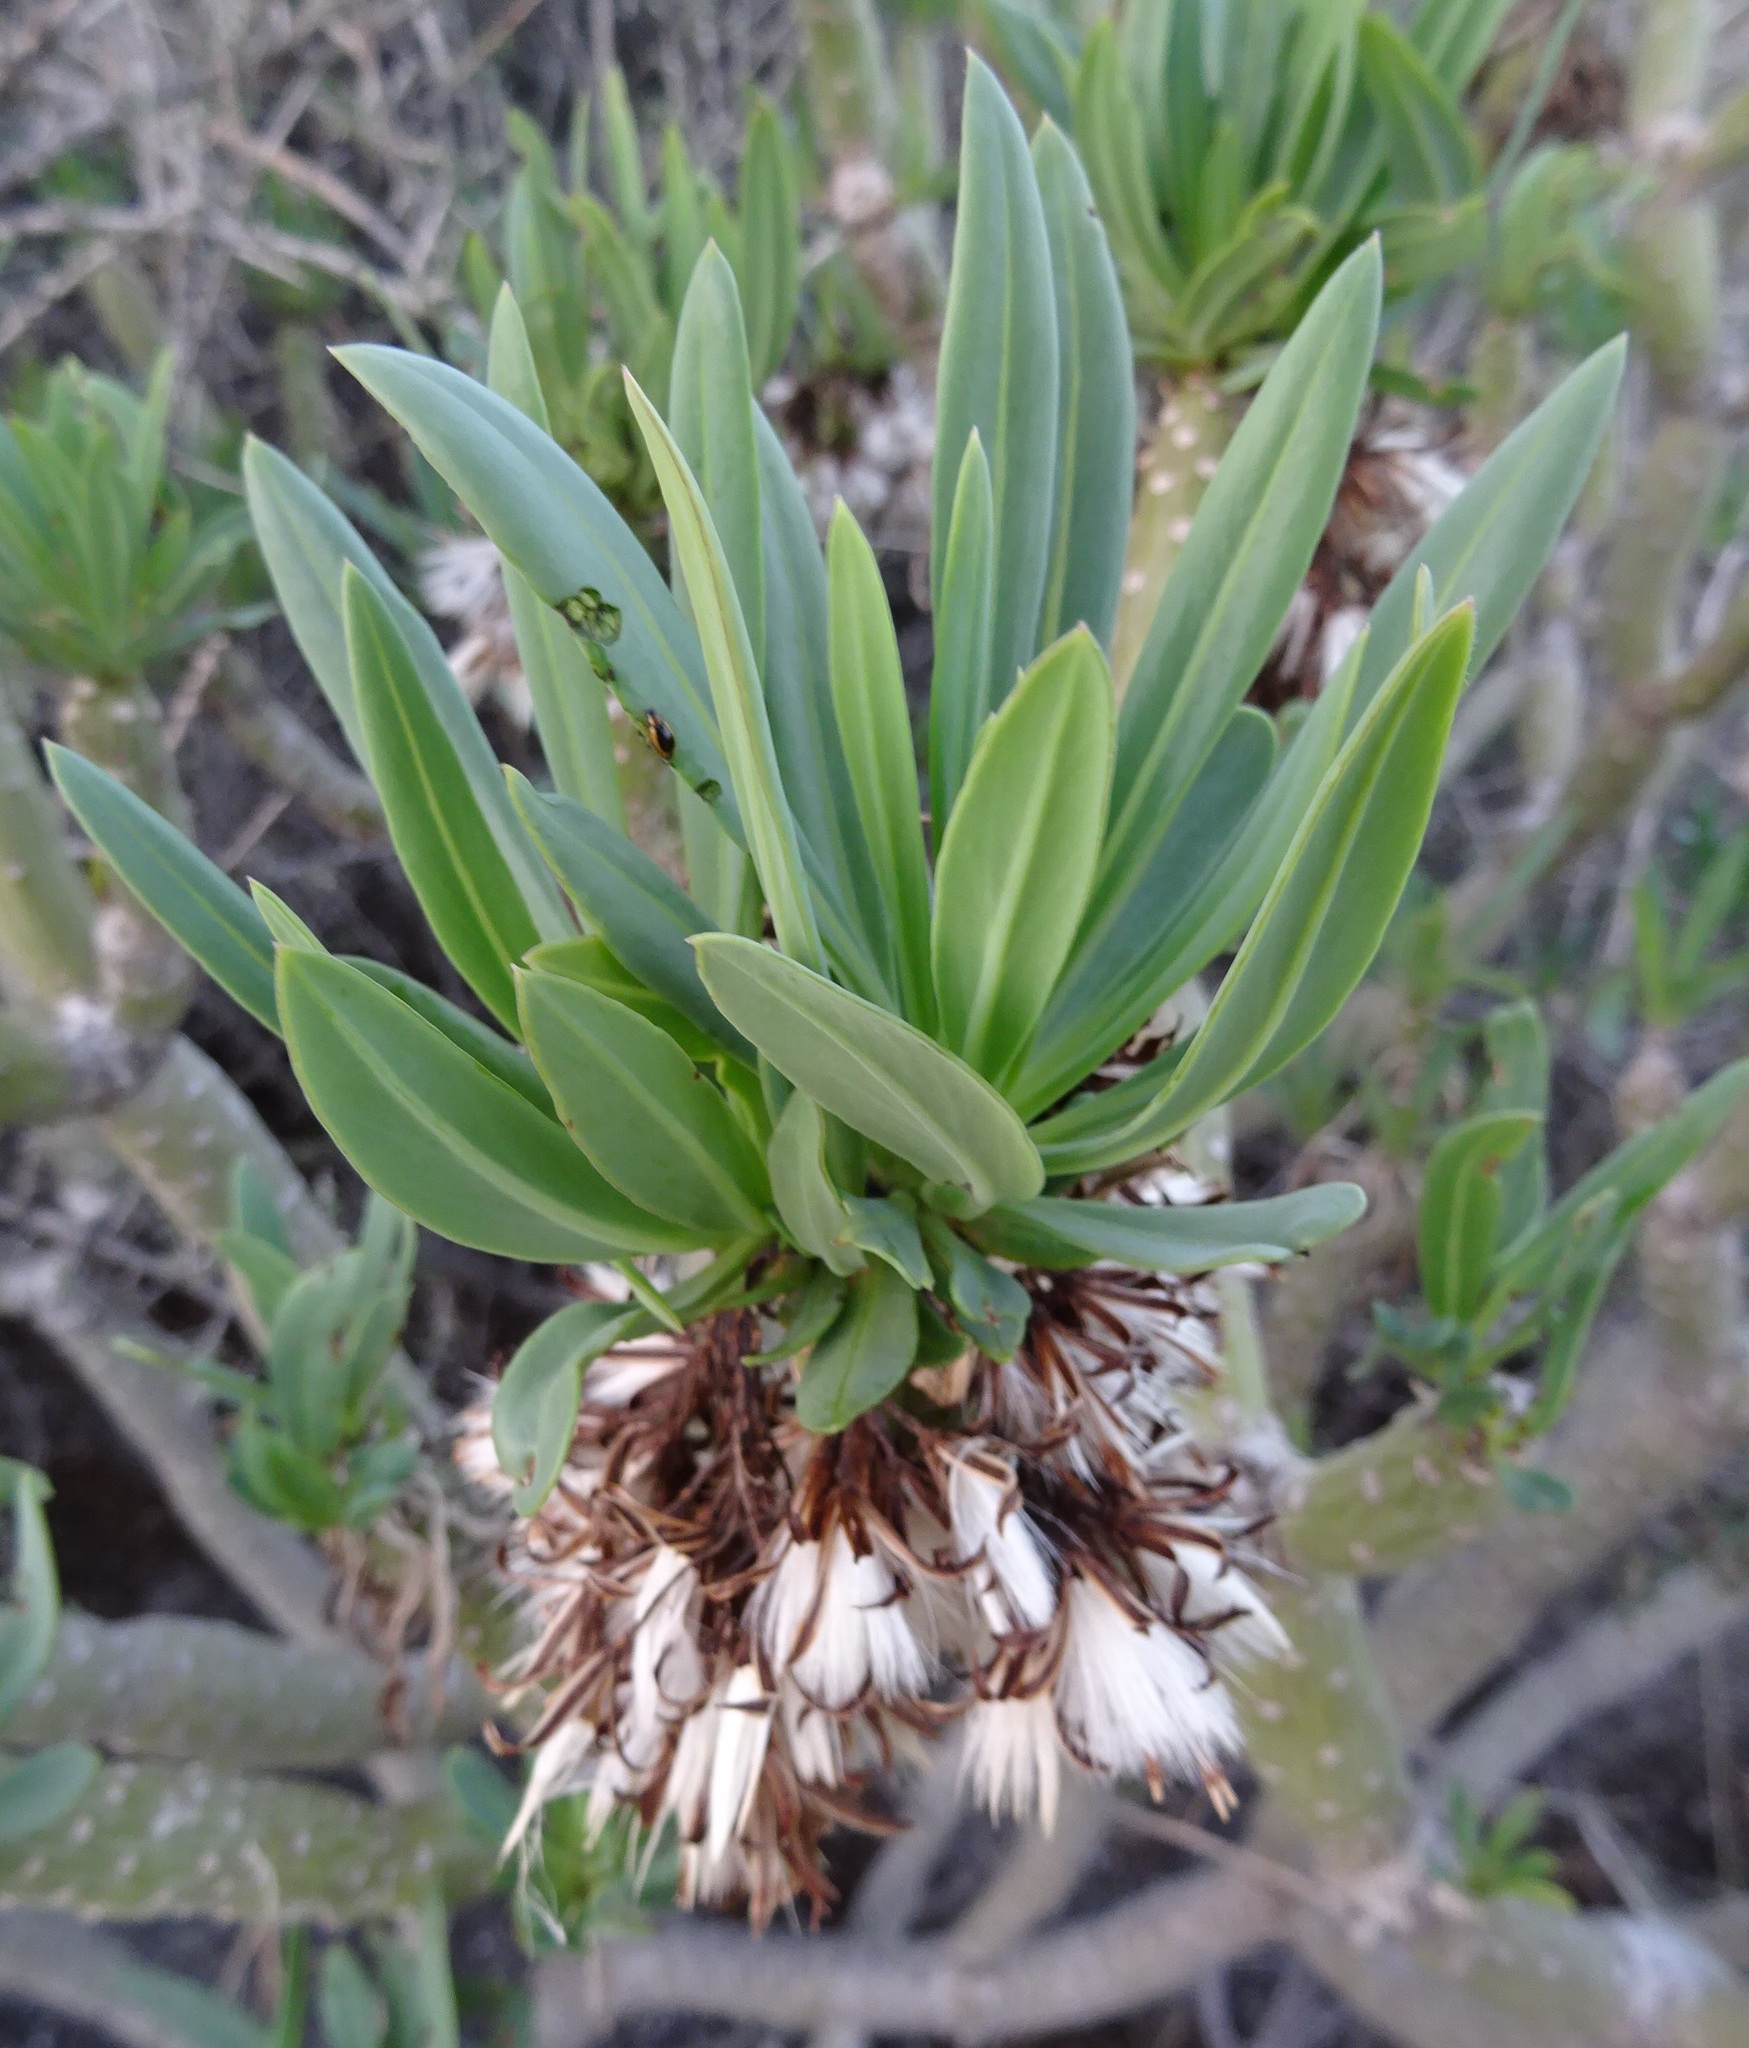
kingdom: Plantae
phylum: Tracheophyta
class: Magnoliopsida
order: Asterales
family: Asteraceae
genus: Kleinia
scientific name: Kleinia neriifolia
